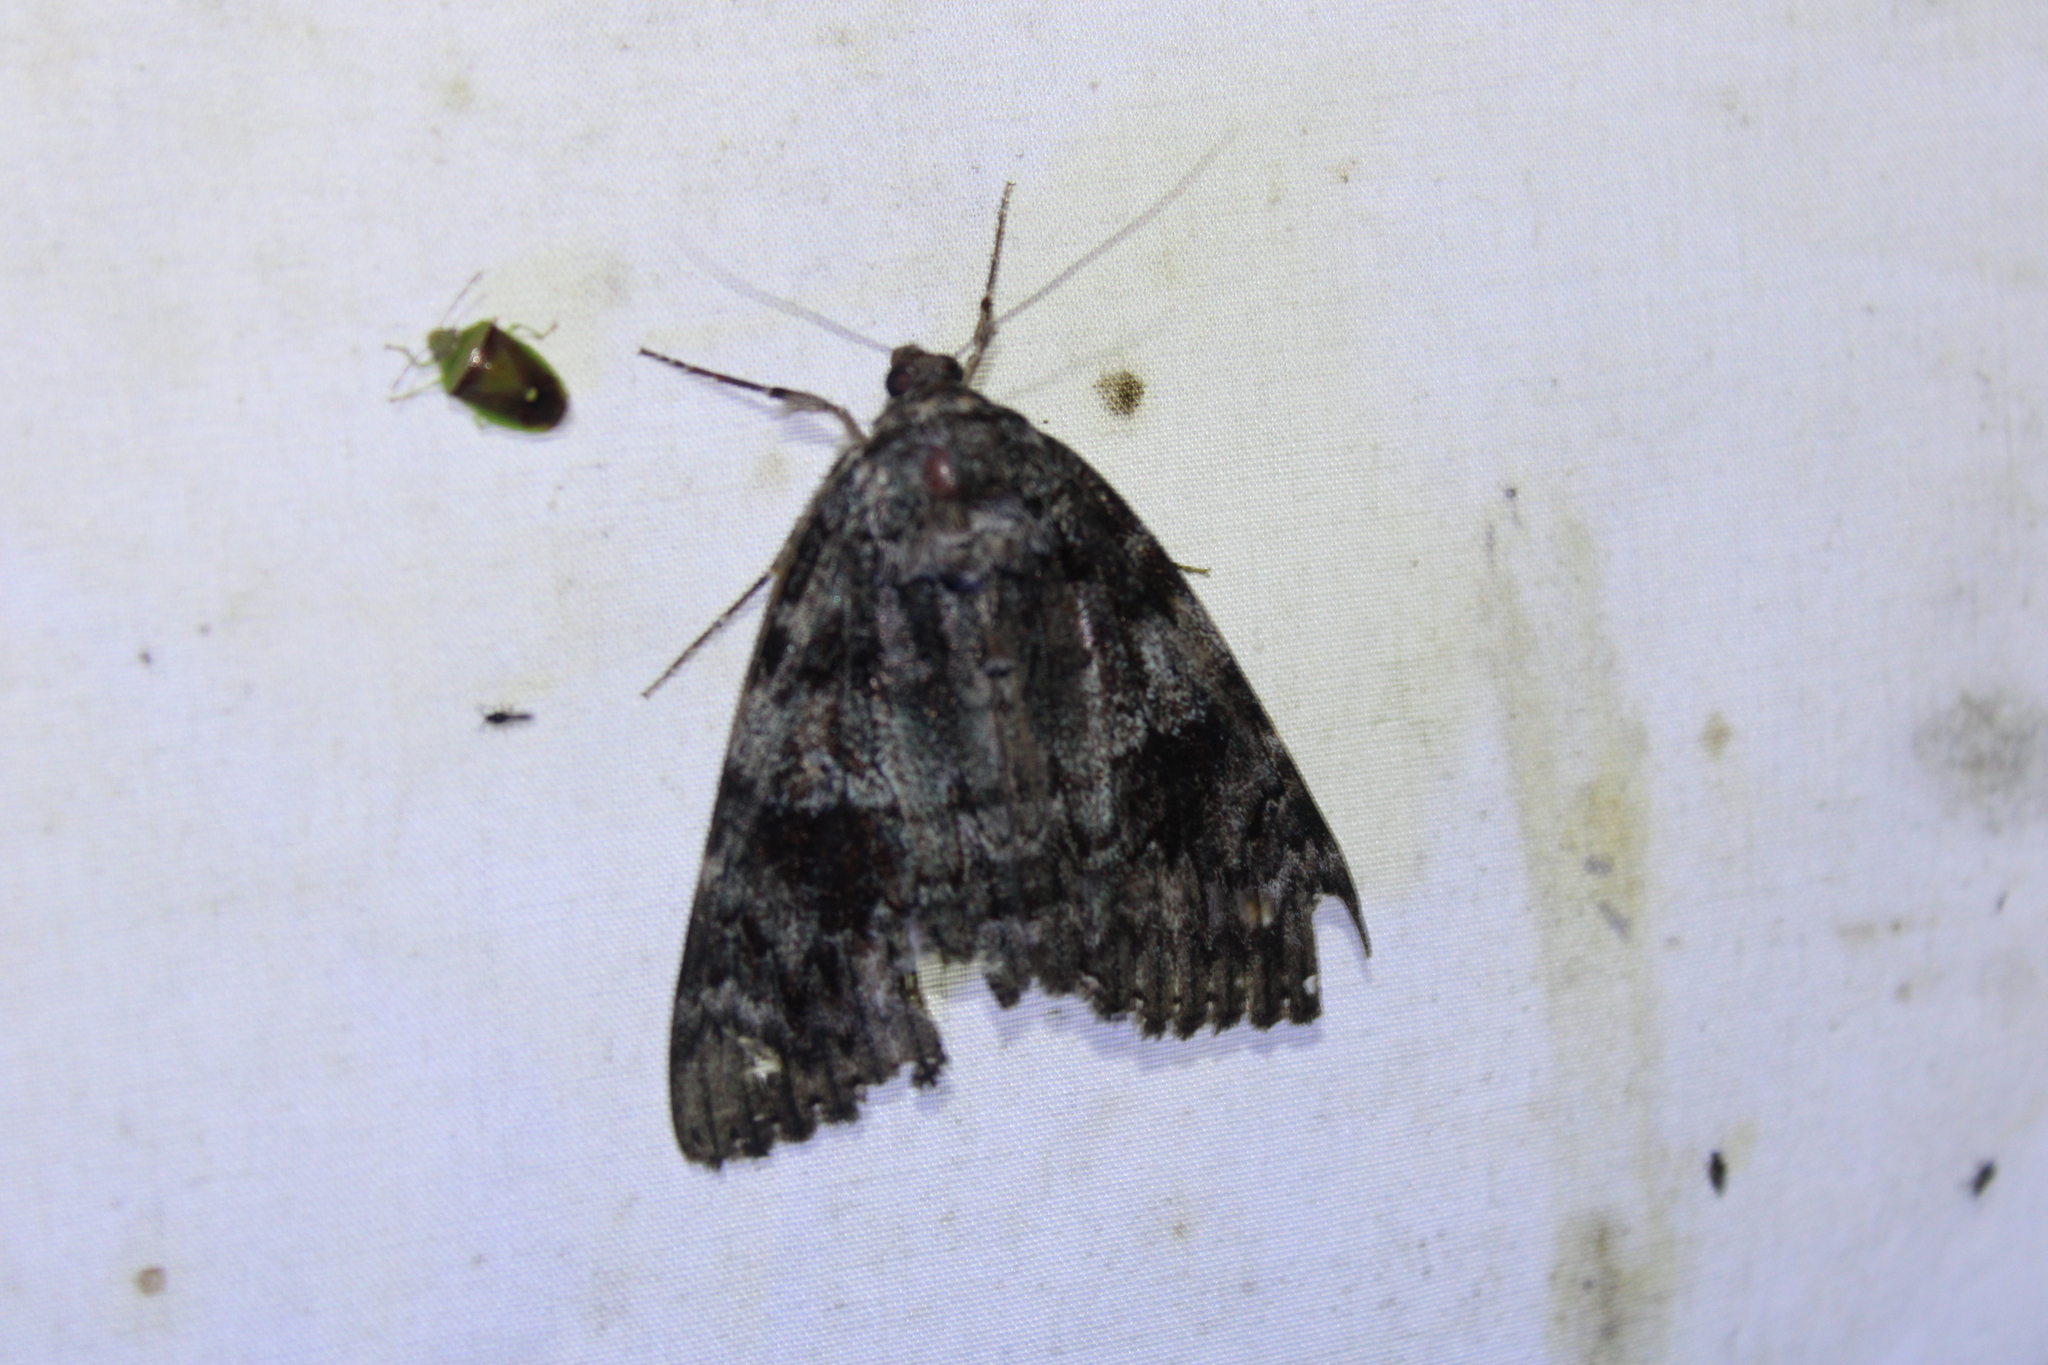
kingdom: Animalia
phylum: Arthropoda
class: Insecta
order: Lepidoptera
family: Erebidae
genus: Catocala
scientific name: Catocala ilia
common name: Ilia underwing
